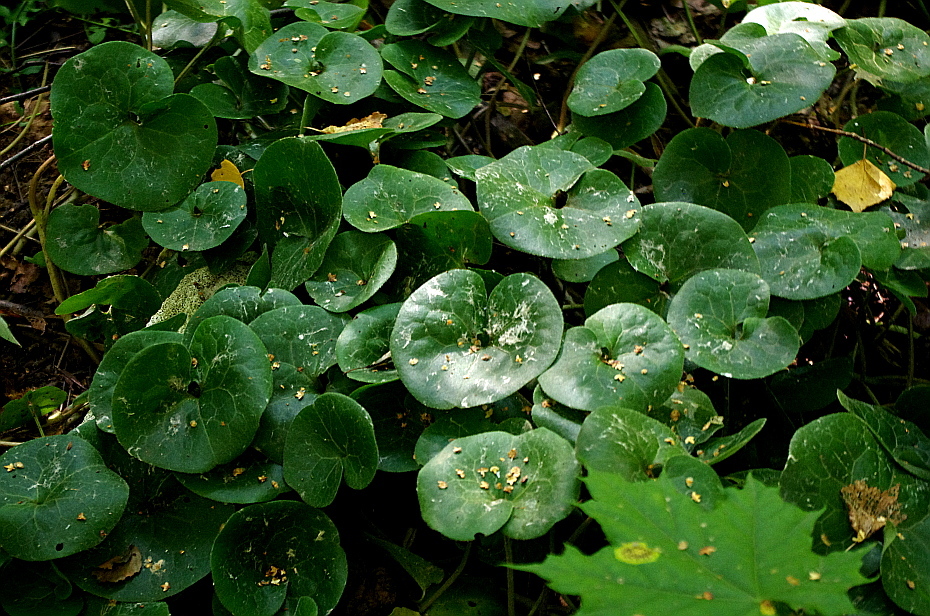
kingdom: Plantae
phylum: Tracheophyta
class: Magnoliopsida
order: Piperales
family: Aristolochiaceae
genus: Asarum
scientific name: Asarum europaeum
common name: Asarabacca
